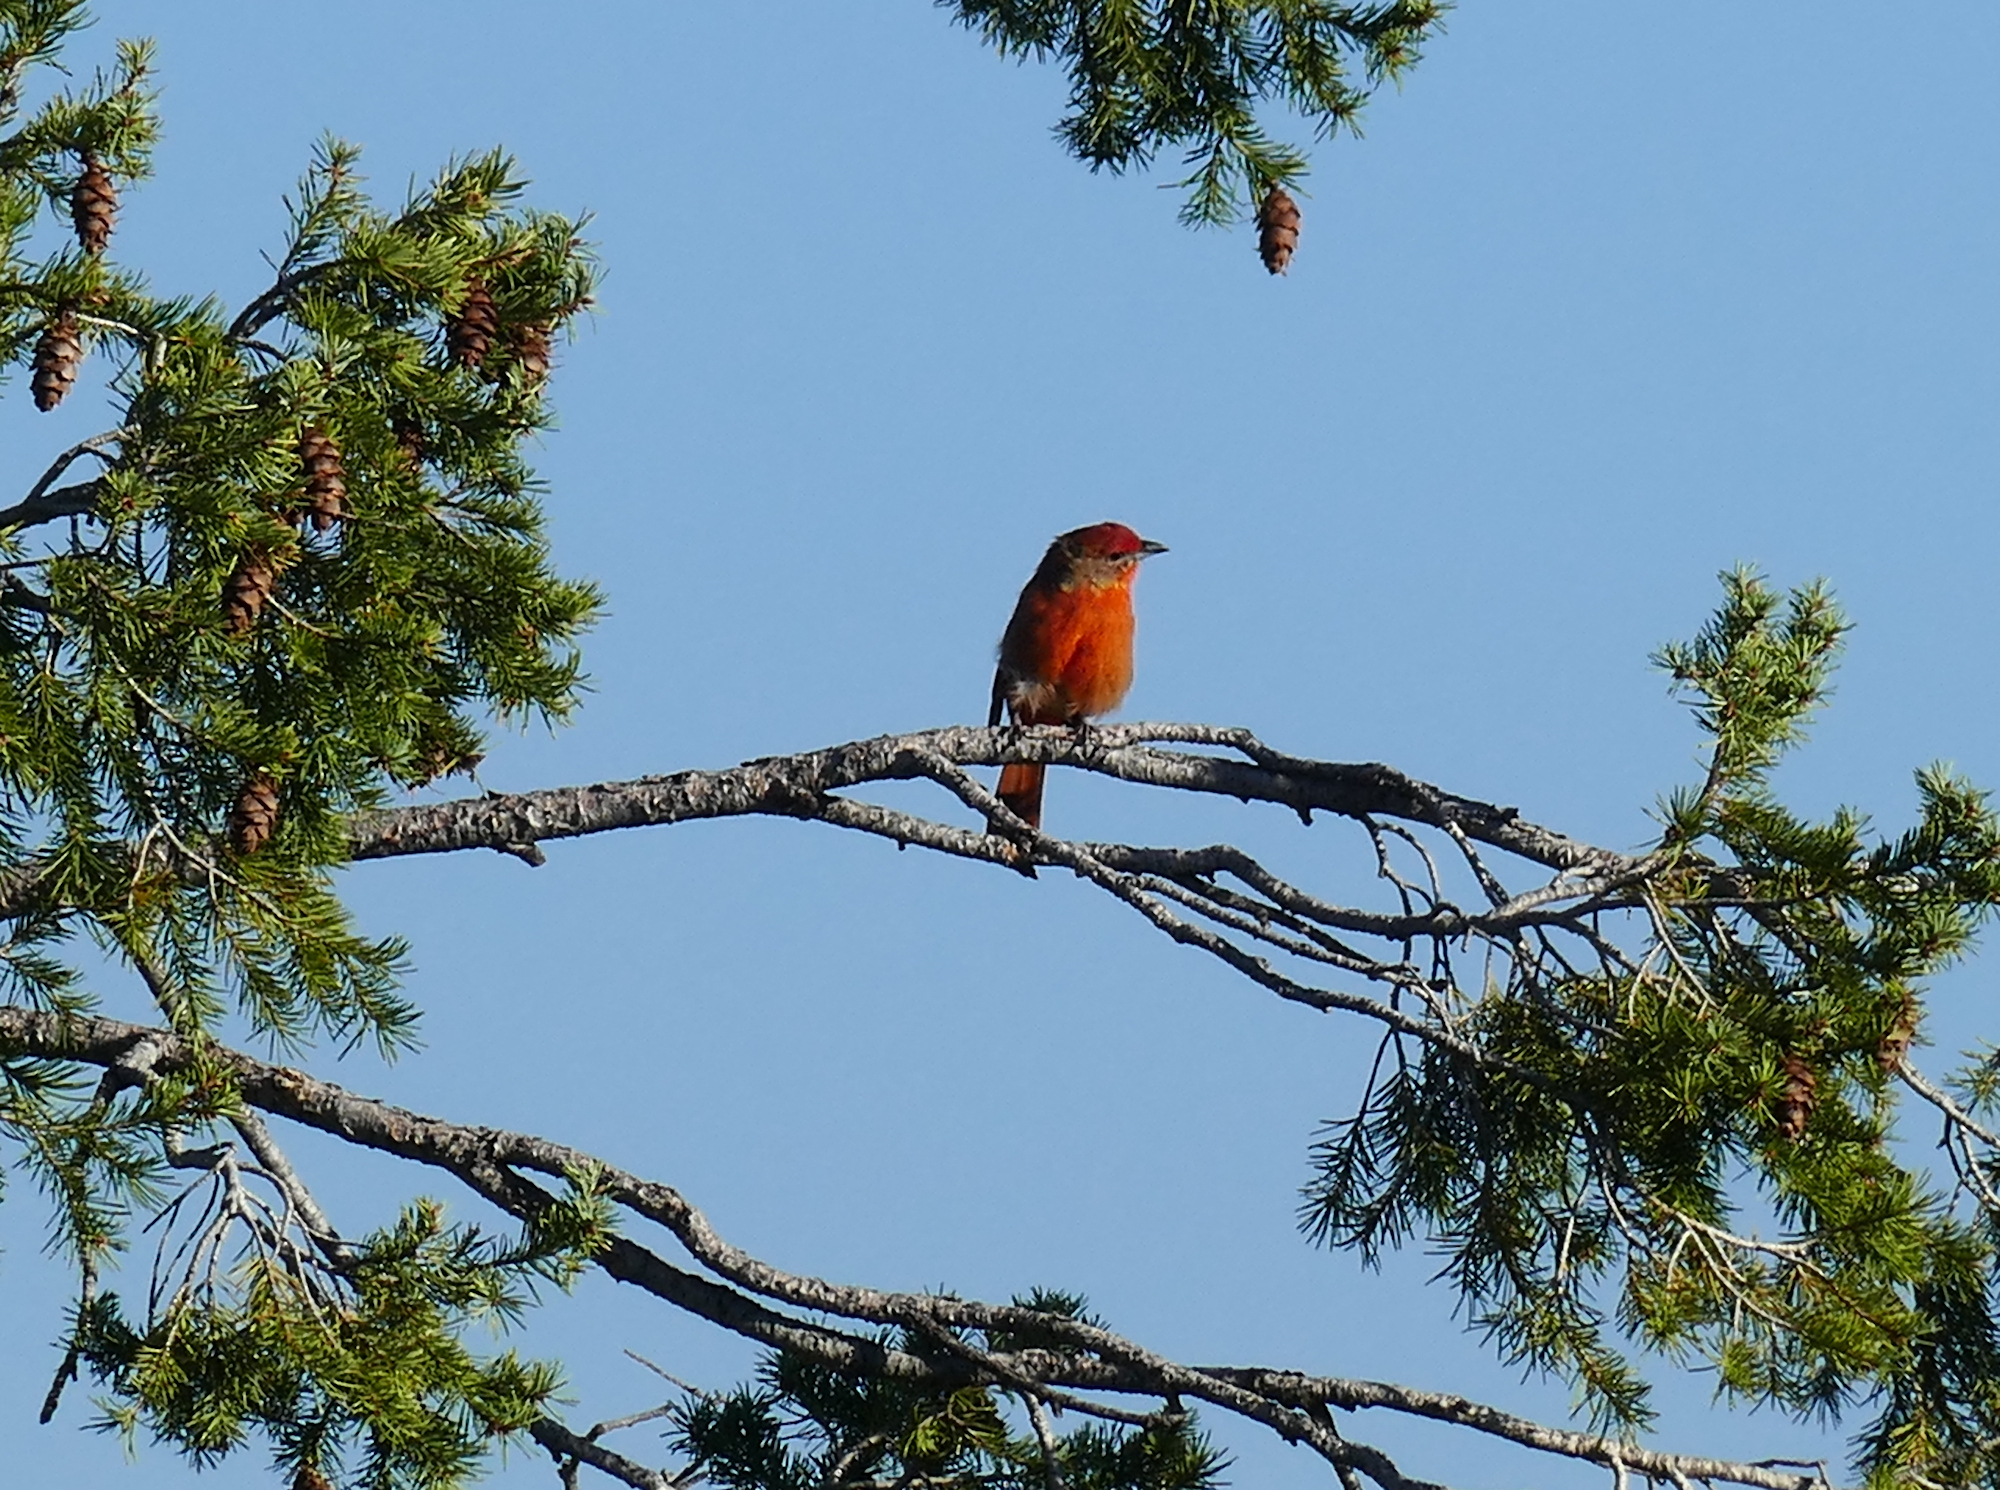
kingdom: Animalia
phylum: Chordata
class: Aves
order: Passeriformes
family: Cardinalidae
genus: Piranga
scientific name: Piranga flava
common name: Red tanager
